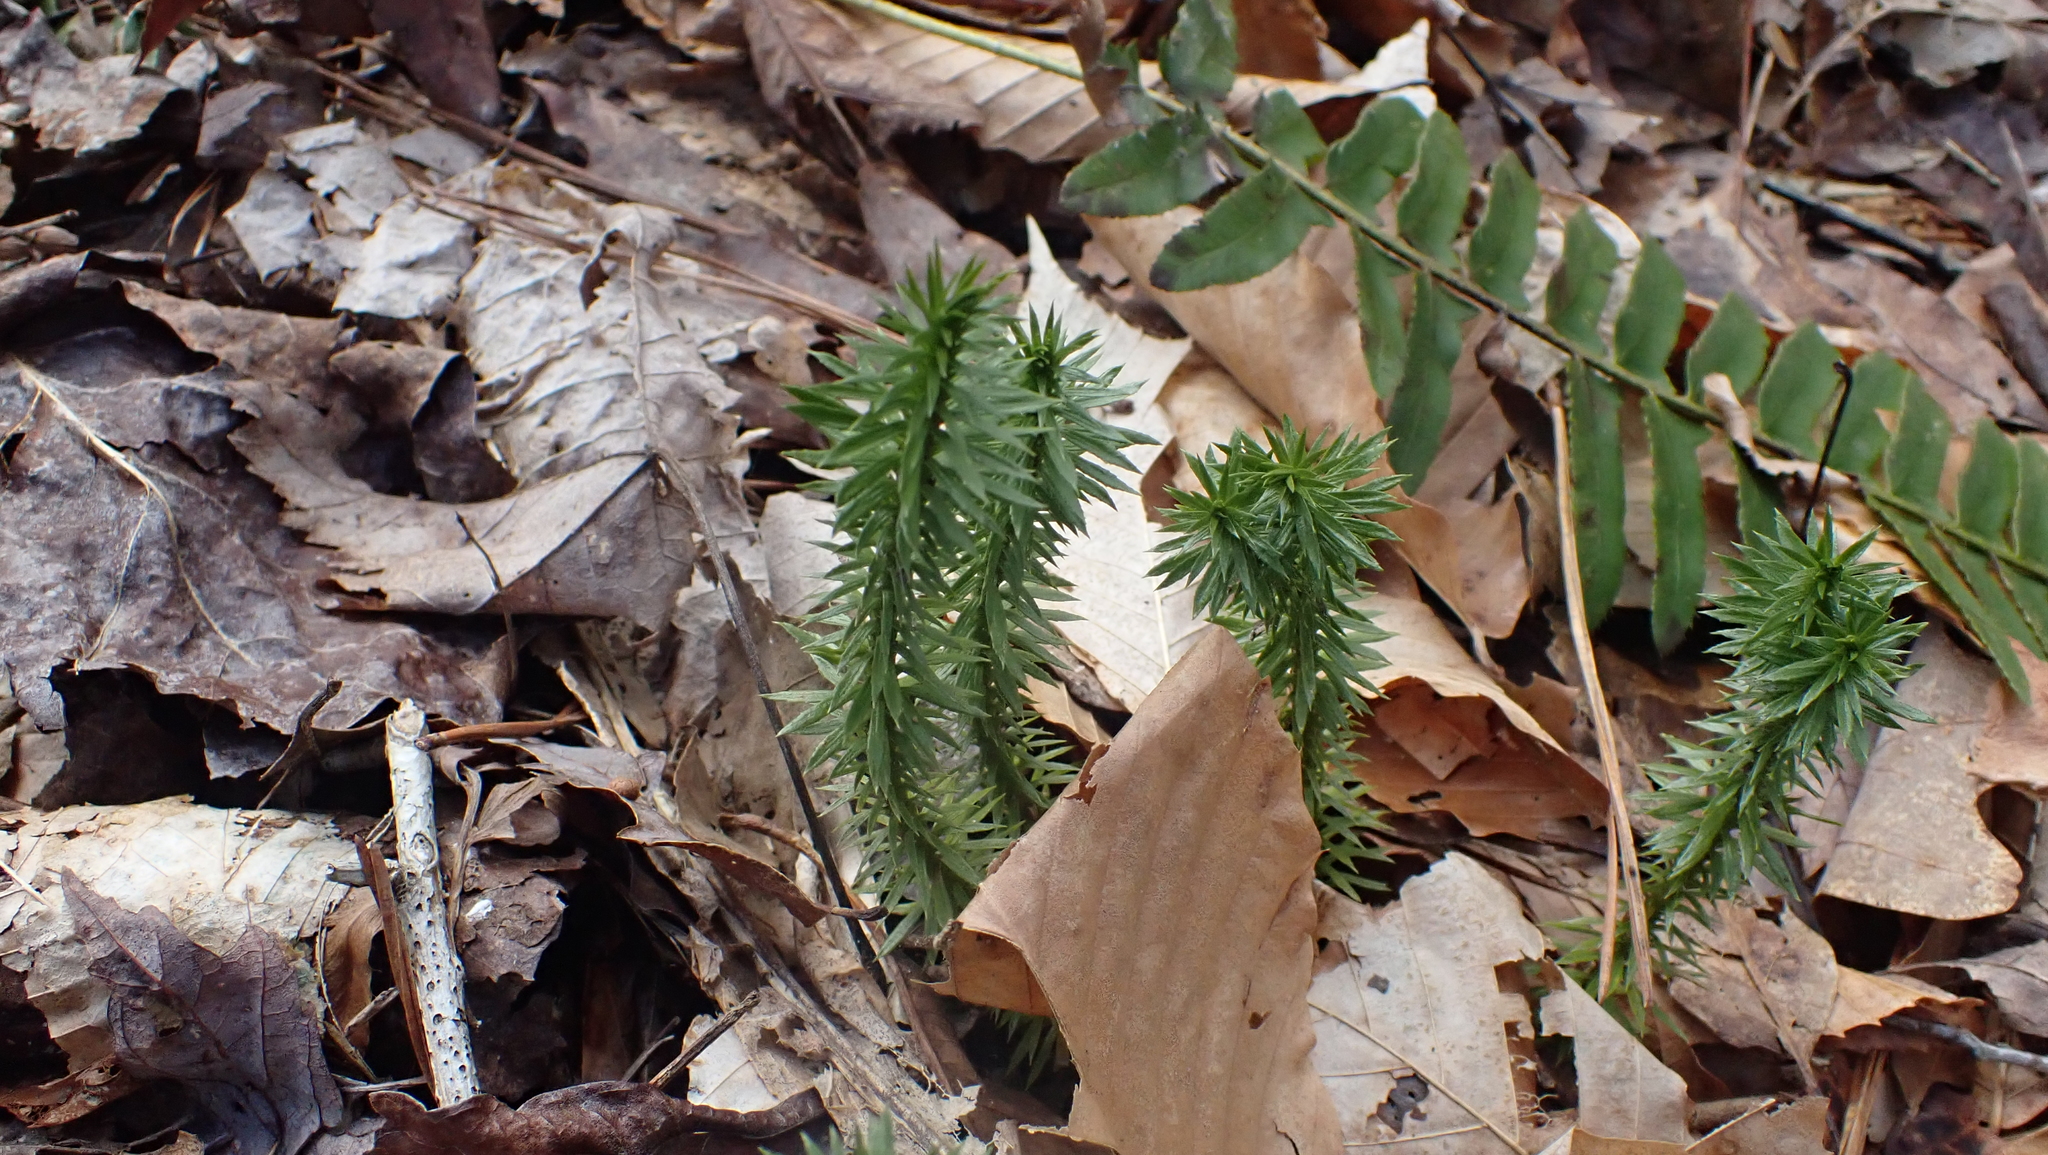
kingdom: Plantae
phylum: Tracheophyta
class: Lycopodiopsida
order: Lycopodiales
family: Lycopodiaceae
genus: Huperzia
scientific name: Huperzia lucidula
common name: Shining clubmoss
